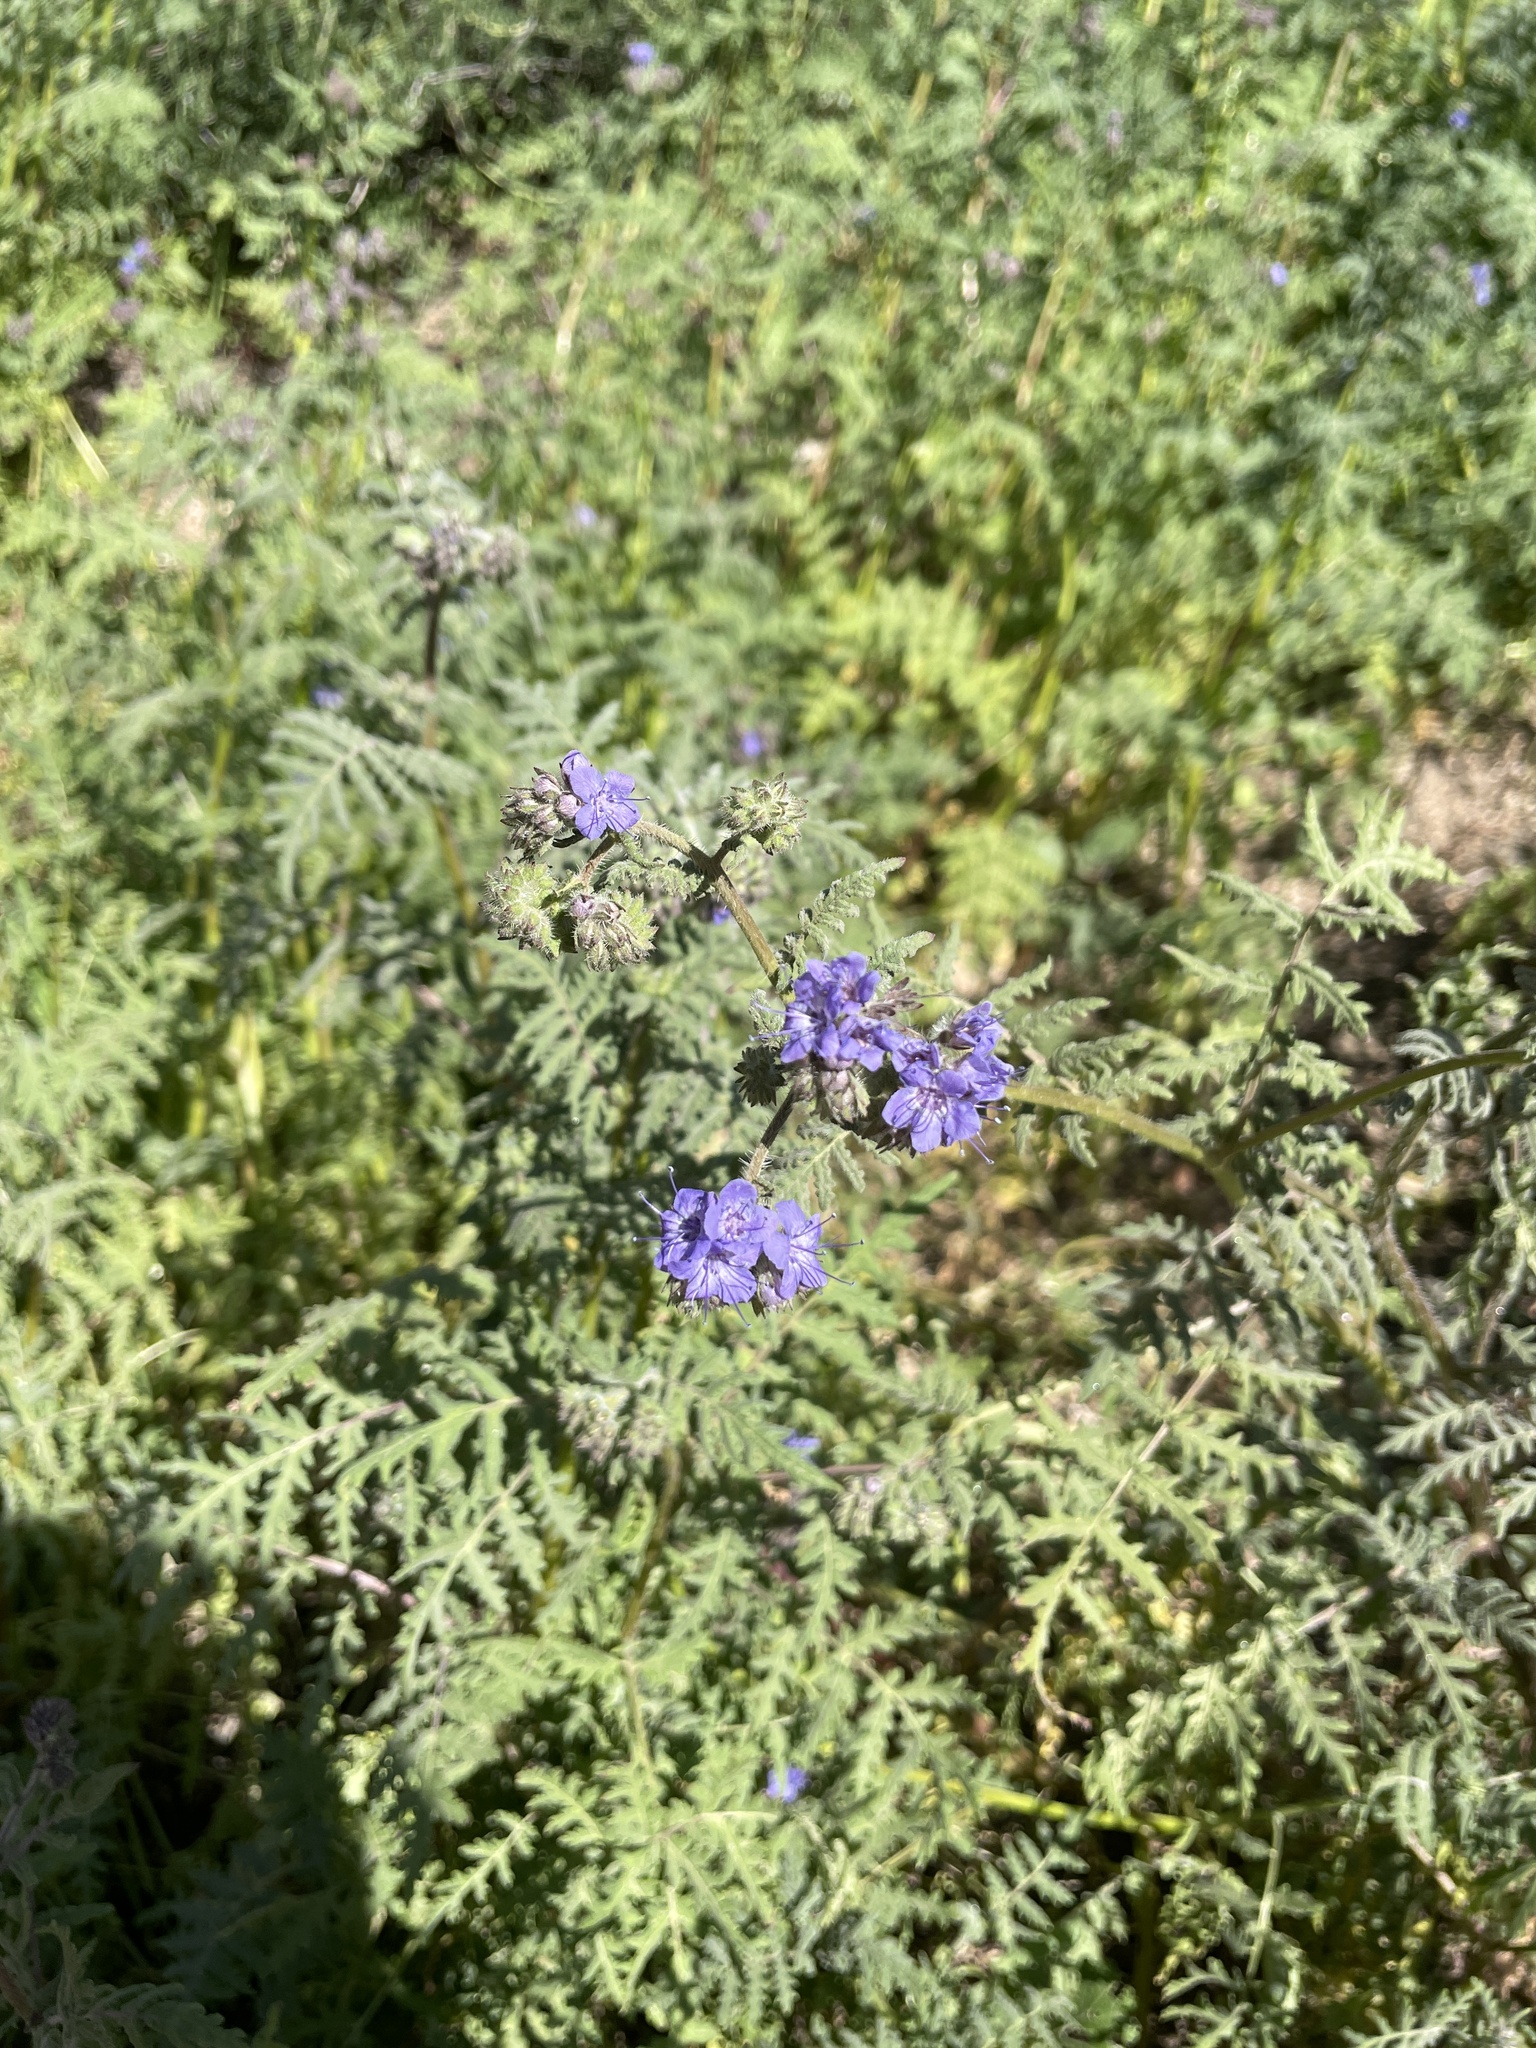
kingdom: Plantae
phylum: Tracheophyta
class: Magnoliopsida
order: Boraginales
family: Hydrophyllaceae
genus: Phacelia
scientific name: Phacelia tanacetifolia
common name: Phacelia
